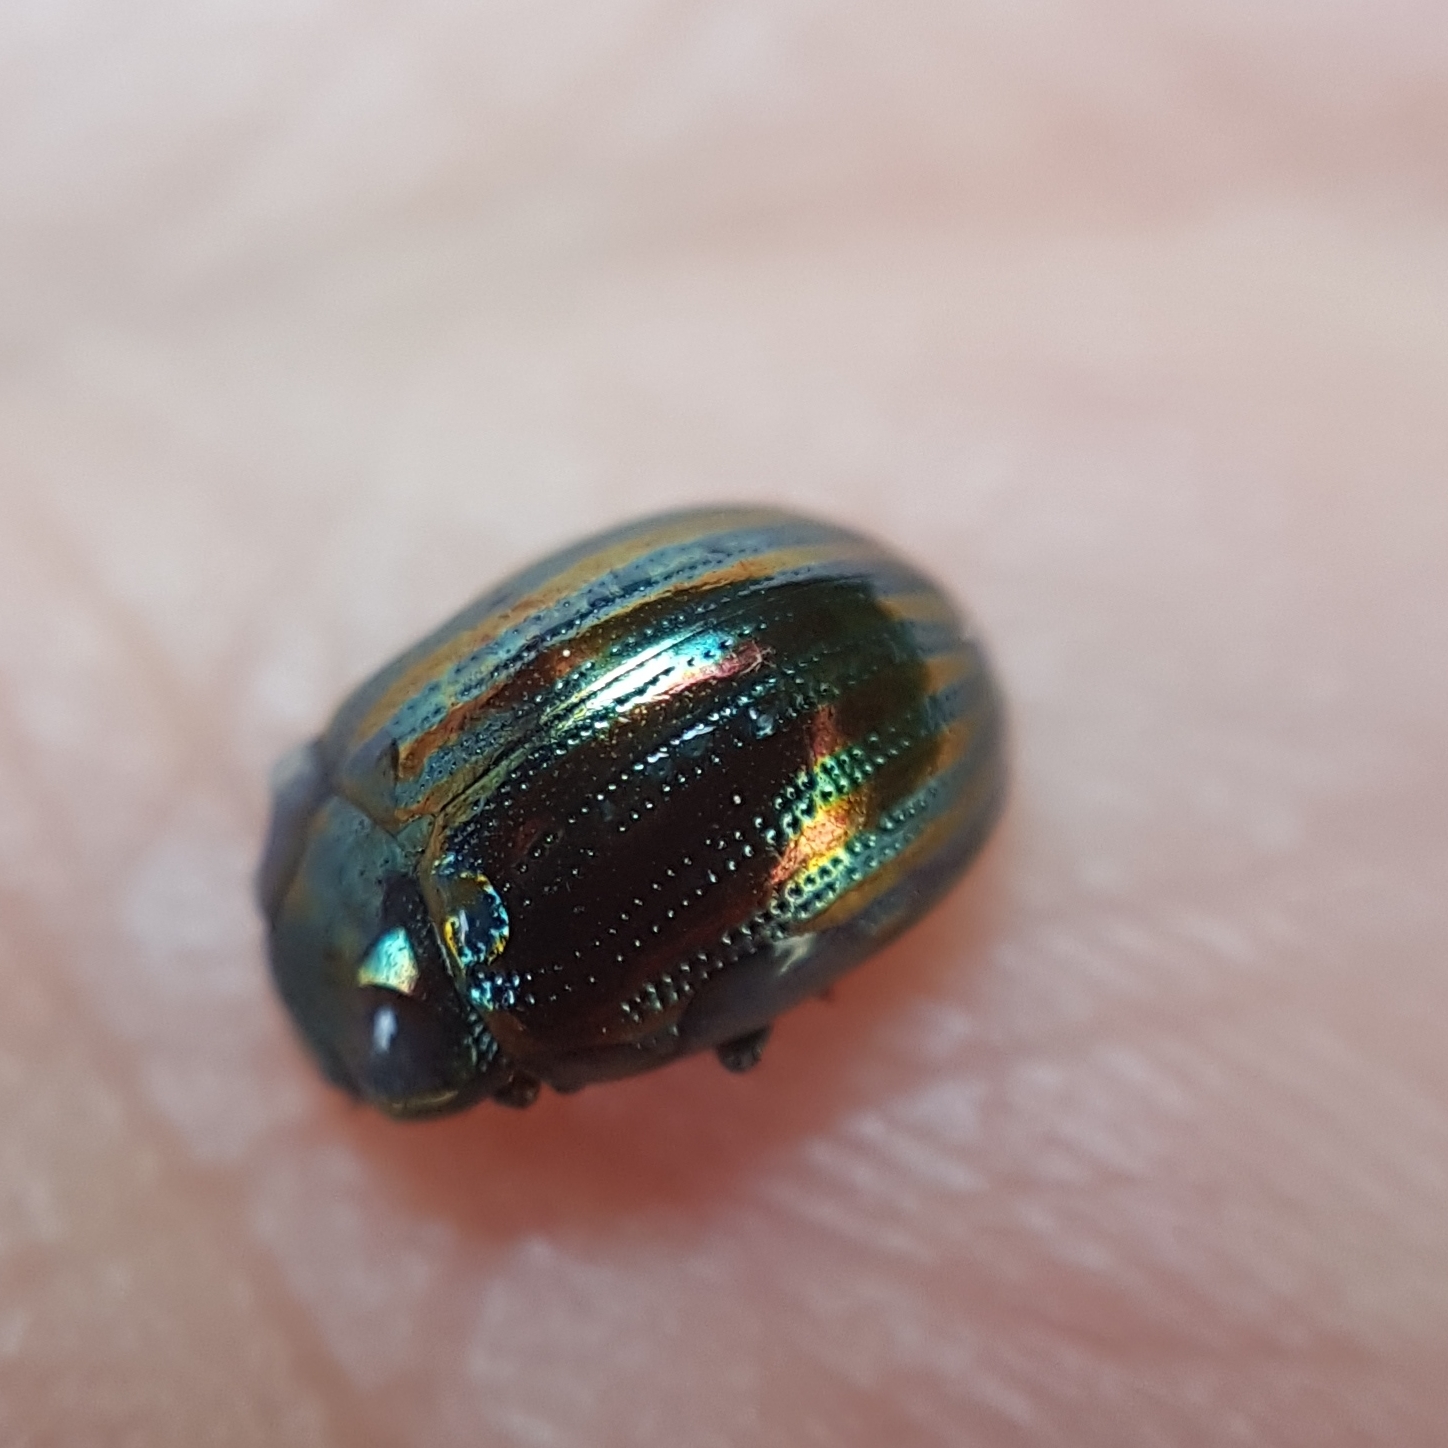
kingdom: Animalia
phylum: Arthropoda
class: Insecta
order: Coleoptera
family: Chrysomelidae
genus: Chrysolina
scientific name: Chrysolina americana
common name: Rosemary beetle
